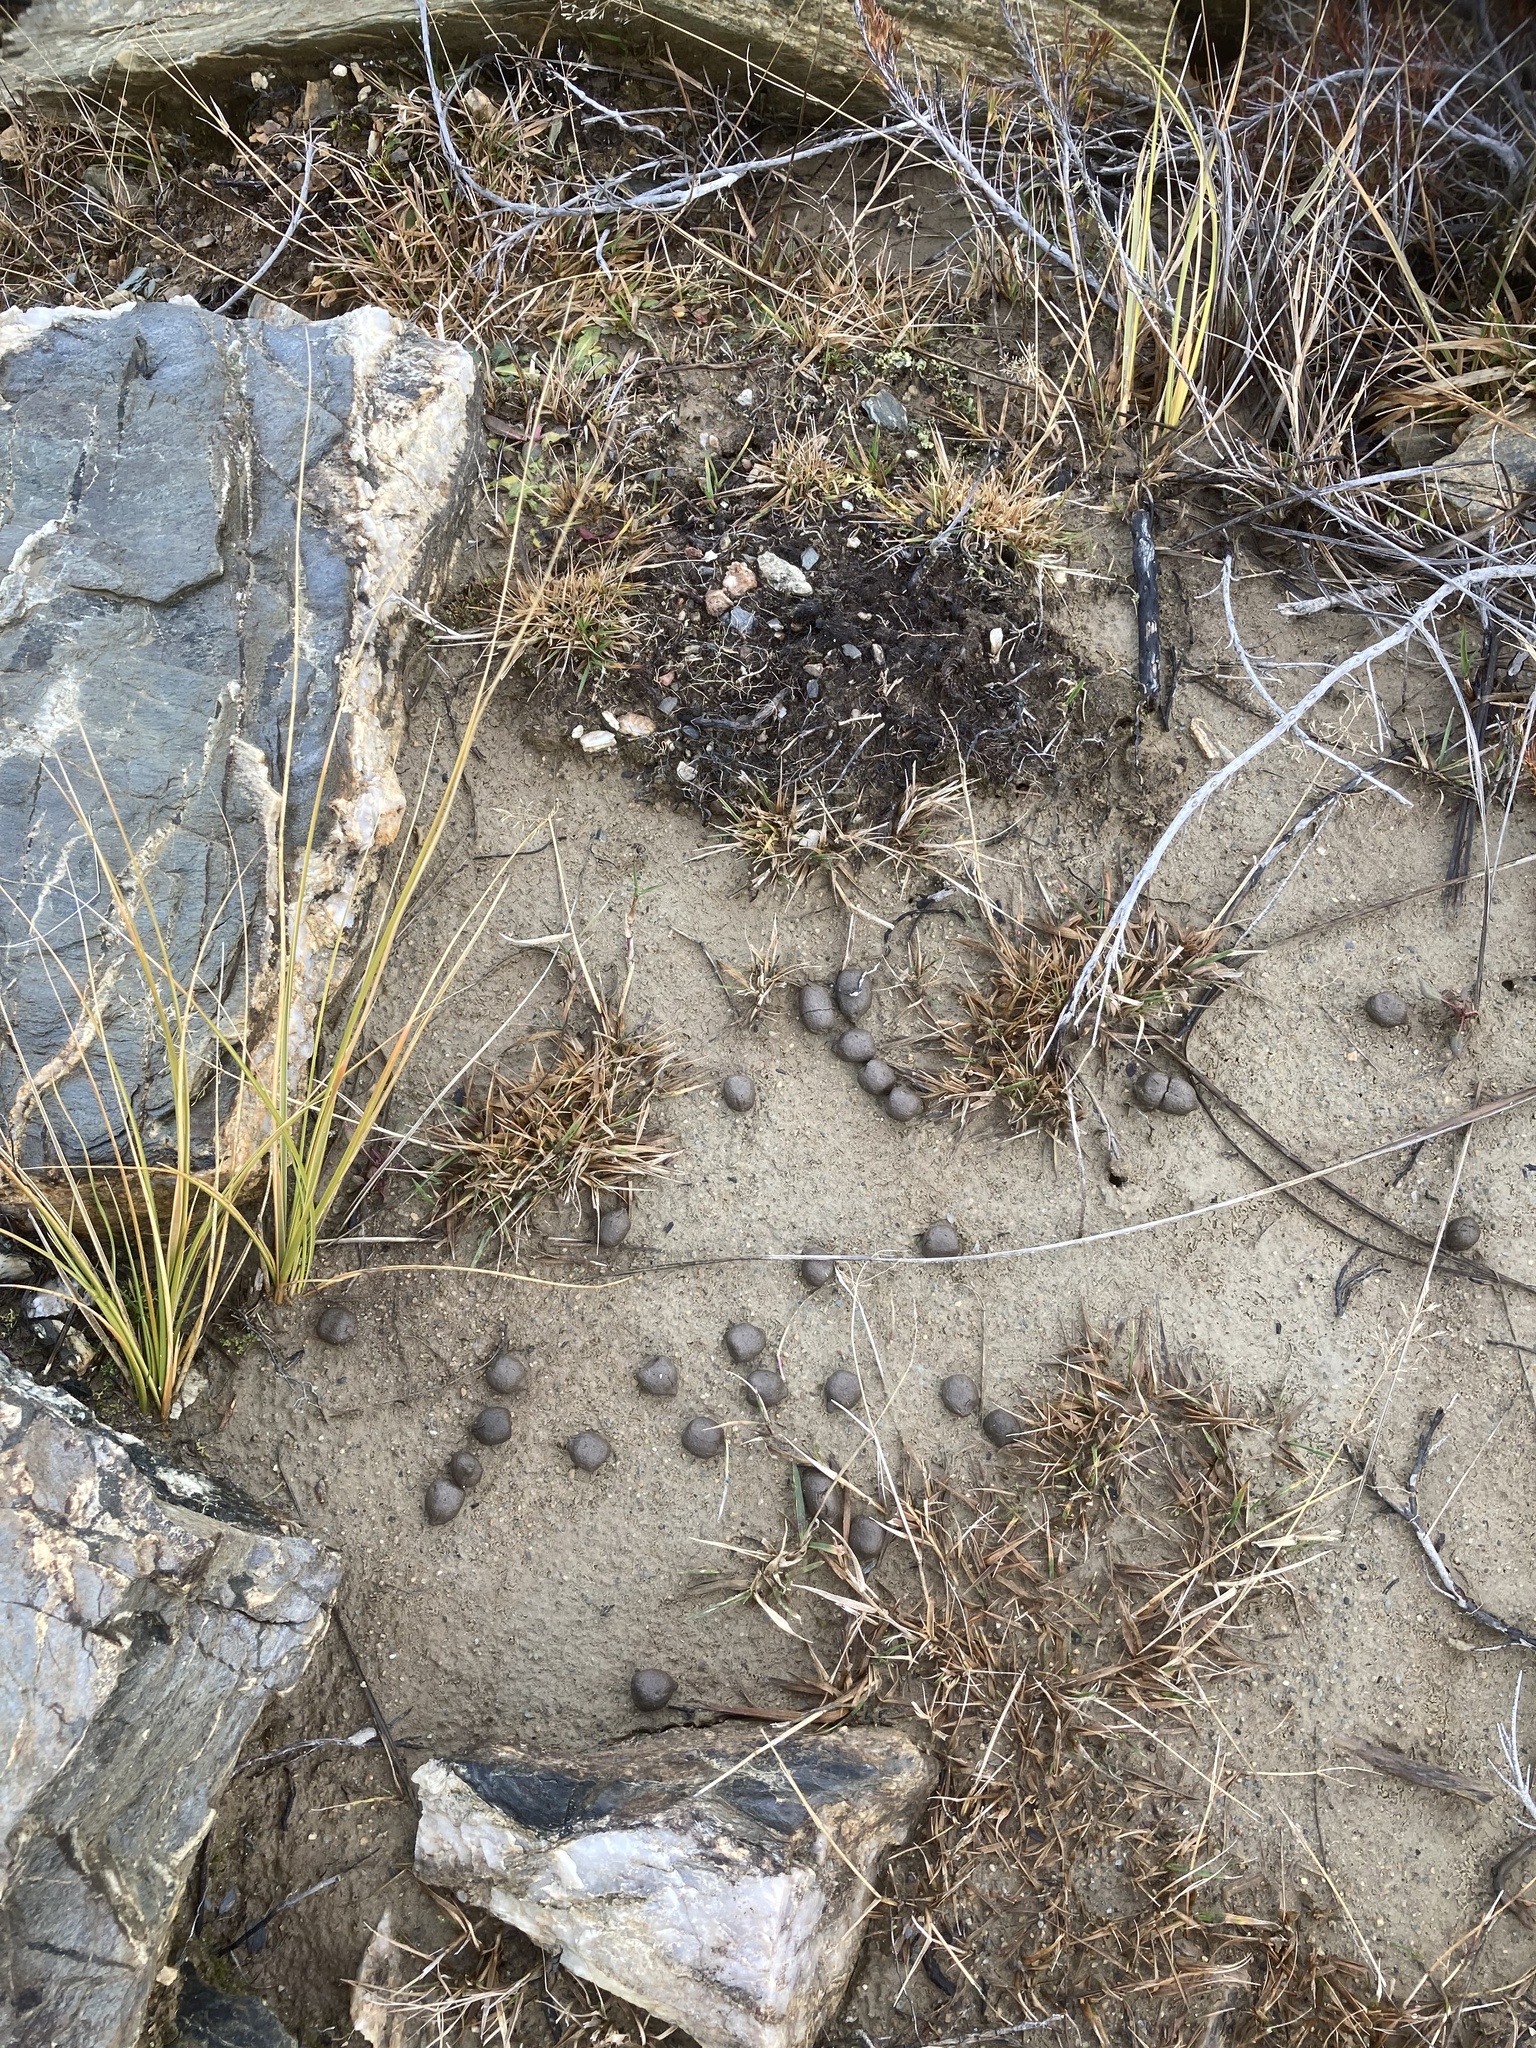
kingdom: Animalia
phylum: Chordata
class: Mammalia
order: Artiodactyla
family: Bovidae
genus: Capra
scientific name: Capra hircus
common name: Domestic goat
